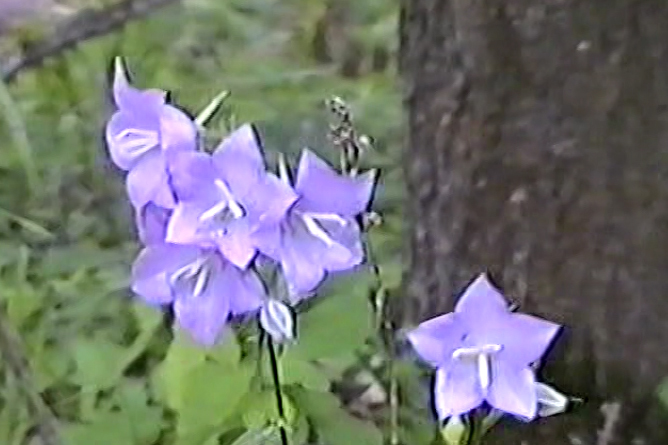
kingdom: Plantae
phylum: Tracheophyta
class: Magnoliopsida
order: Asterales
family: Campanulaceae
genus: Campanula
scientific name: Campanula persicifolia
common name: Peach-leaved bellflower
